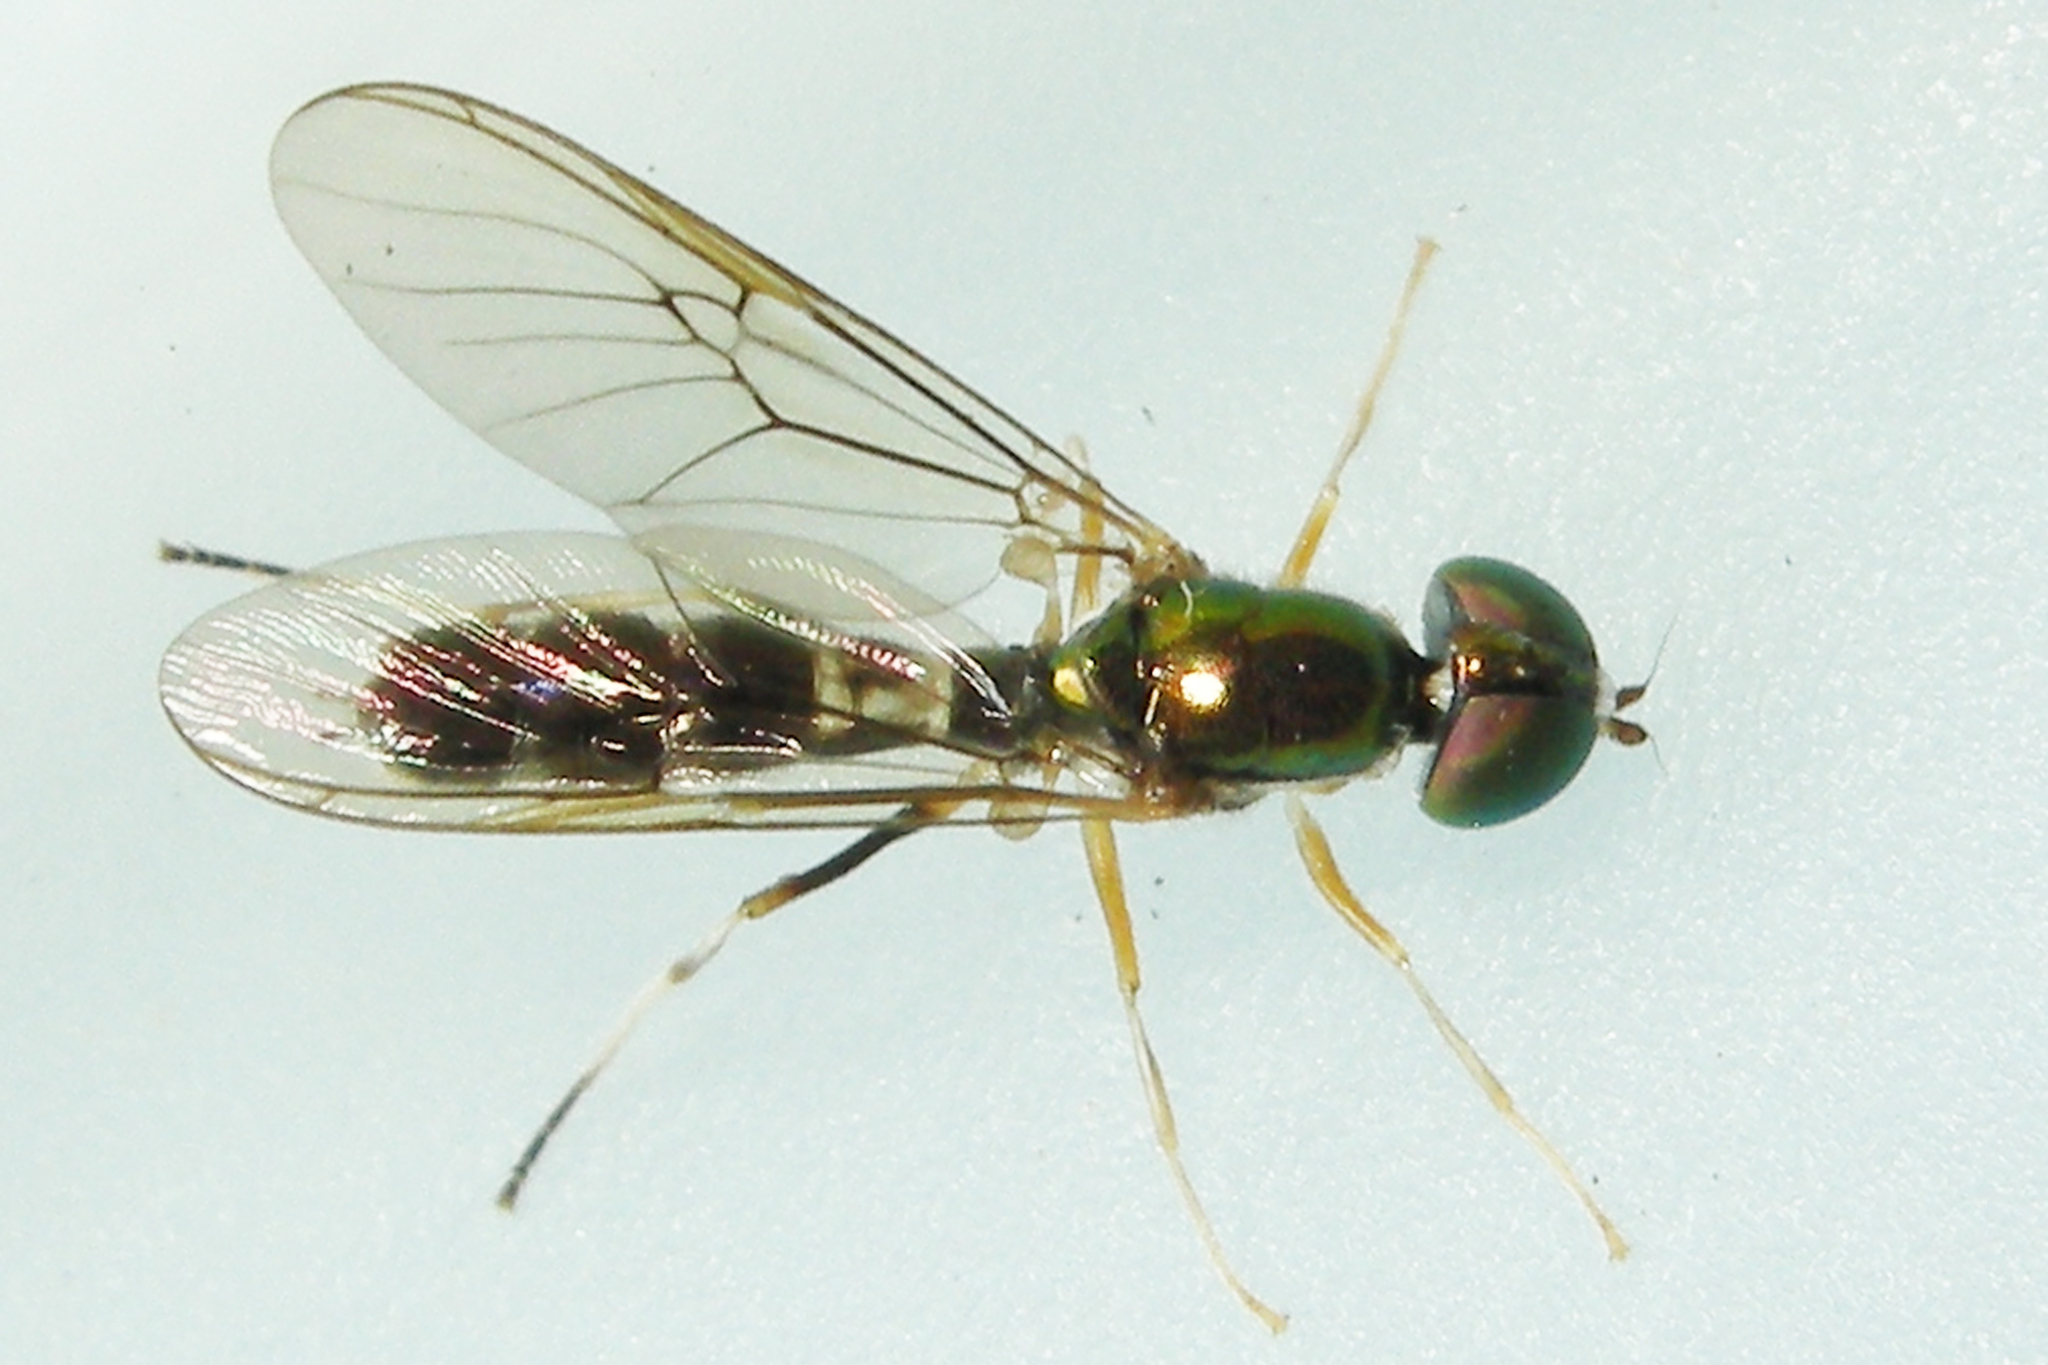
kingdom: Animalia
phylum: Arthropoda
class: Insecta
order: Diptera
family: Stratiomyidae
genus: Sargus
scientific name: Sargus fasciatus
